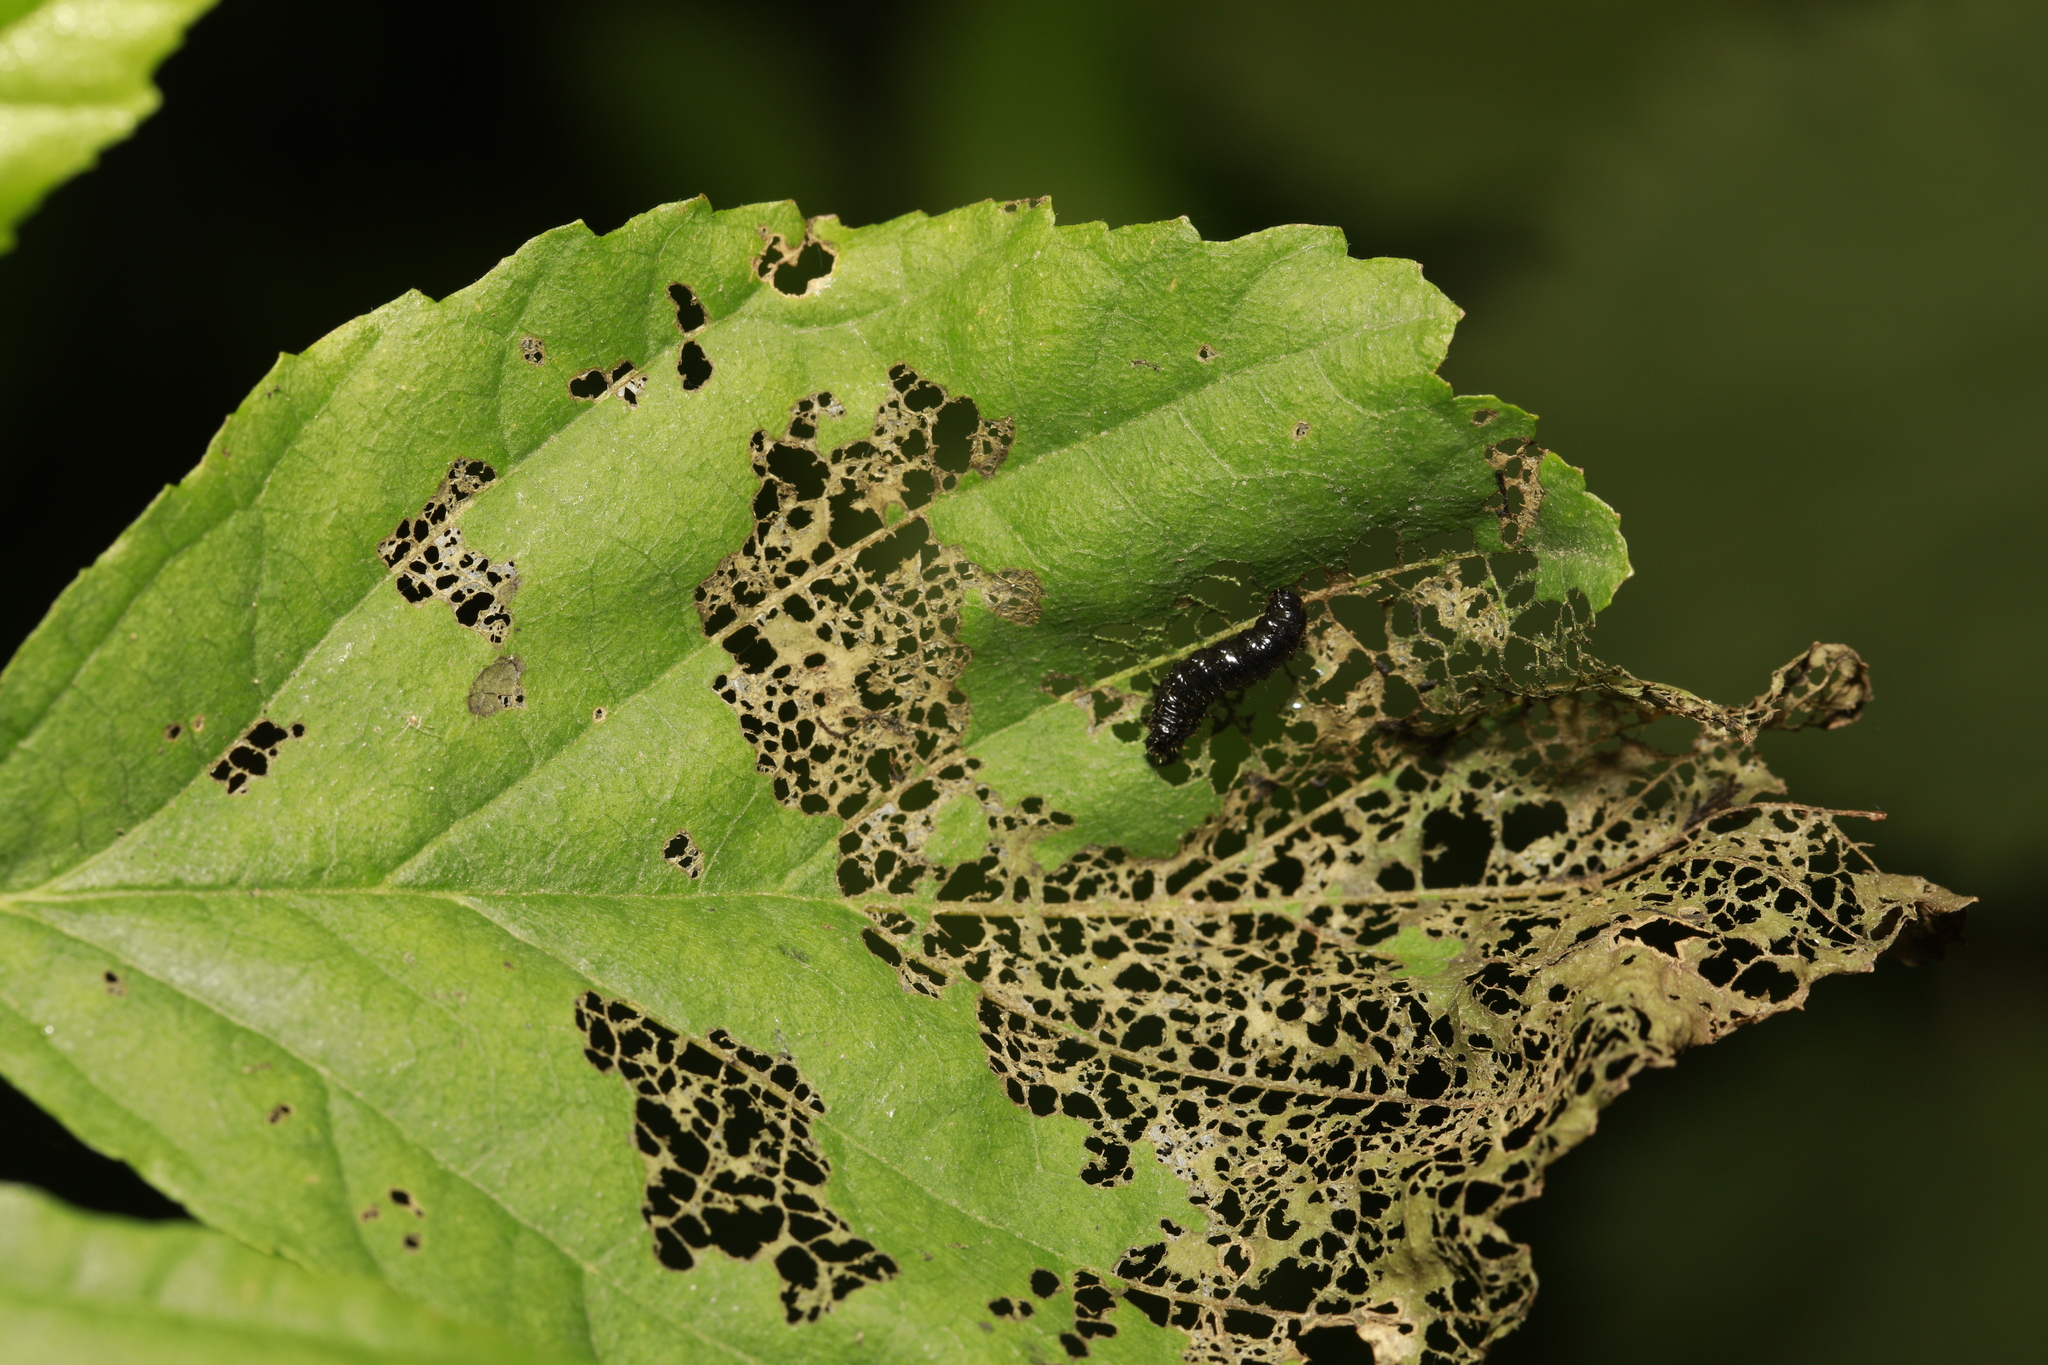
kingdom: Animalia
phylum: Arthropoda
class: Insecta
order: Coleoptera
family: Chrysomelidae
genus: Agelastica
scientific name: Agelastica alni
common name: Alder leaf beetle
